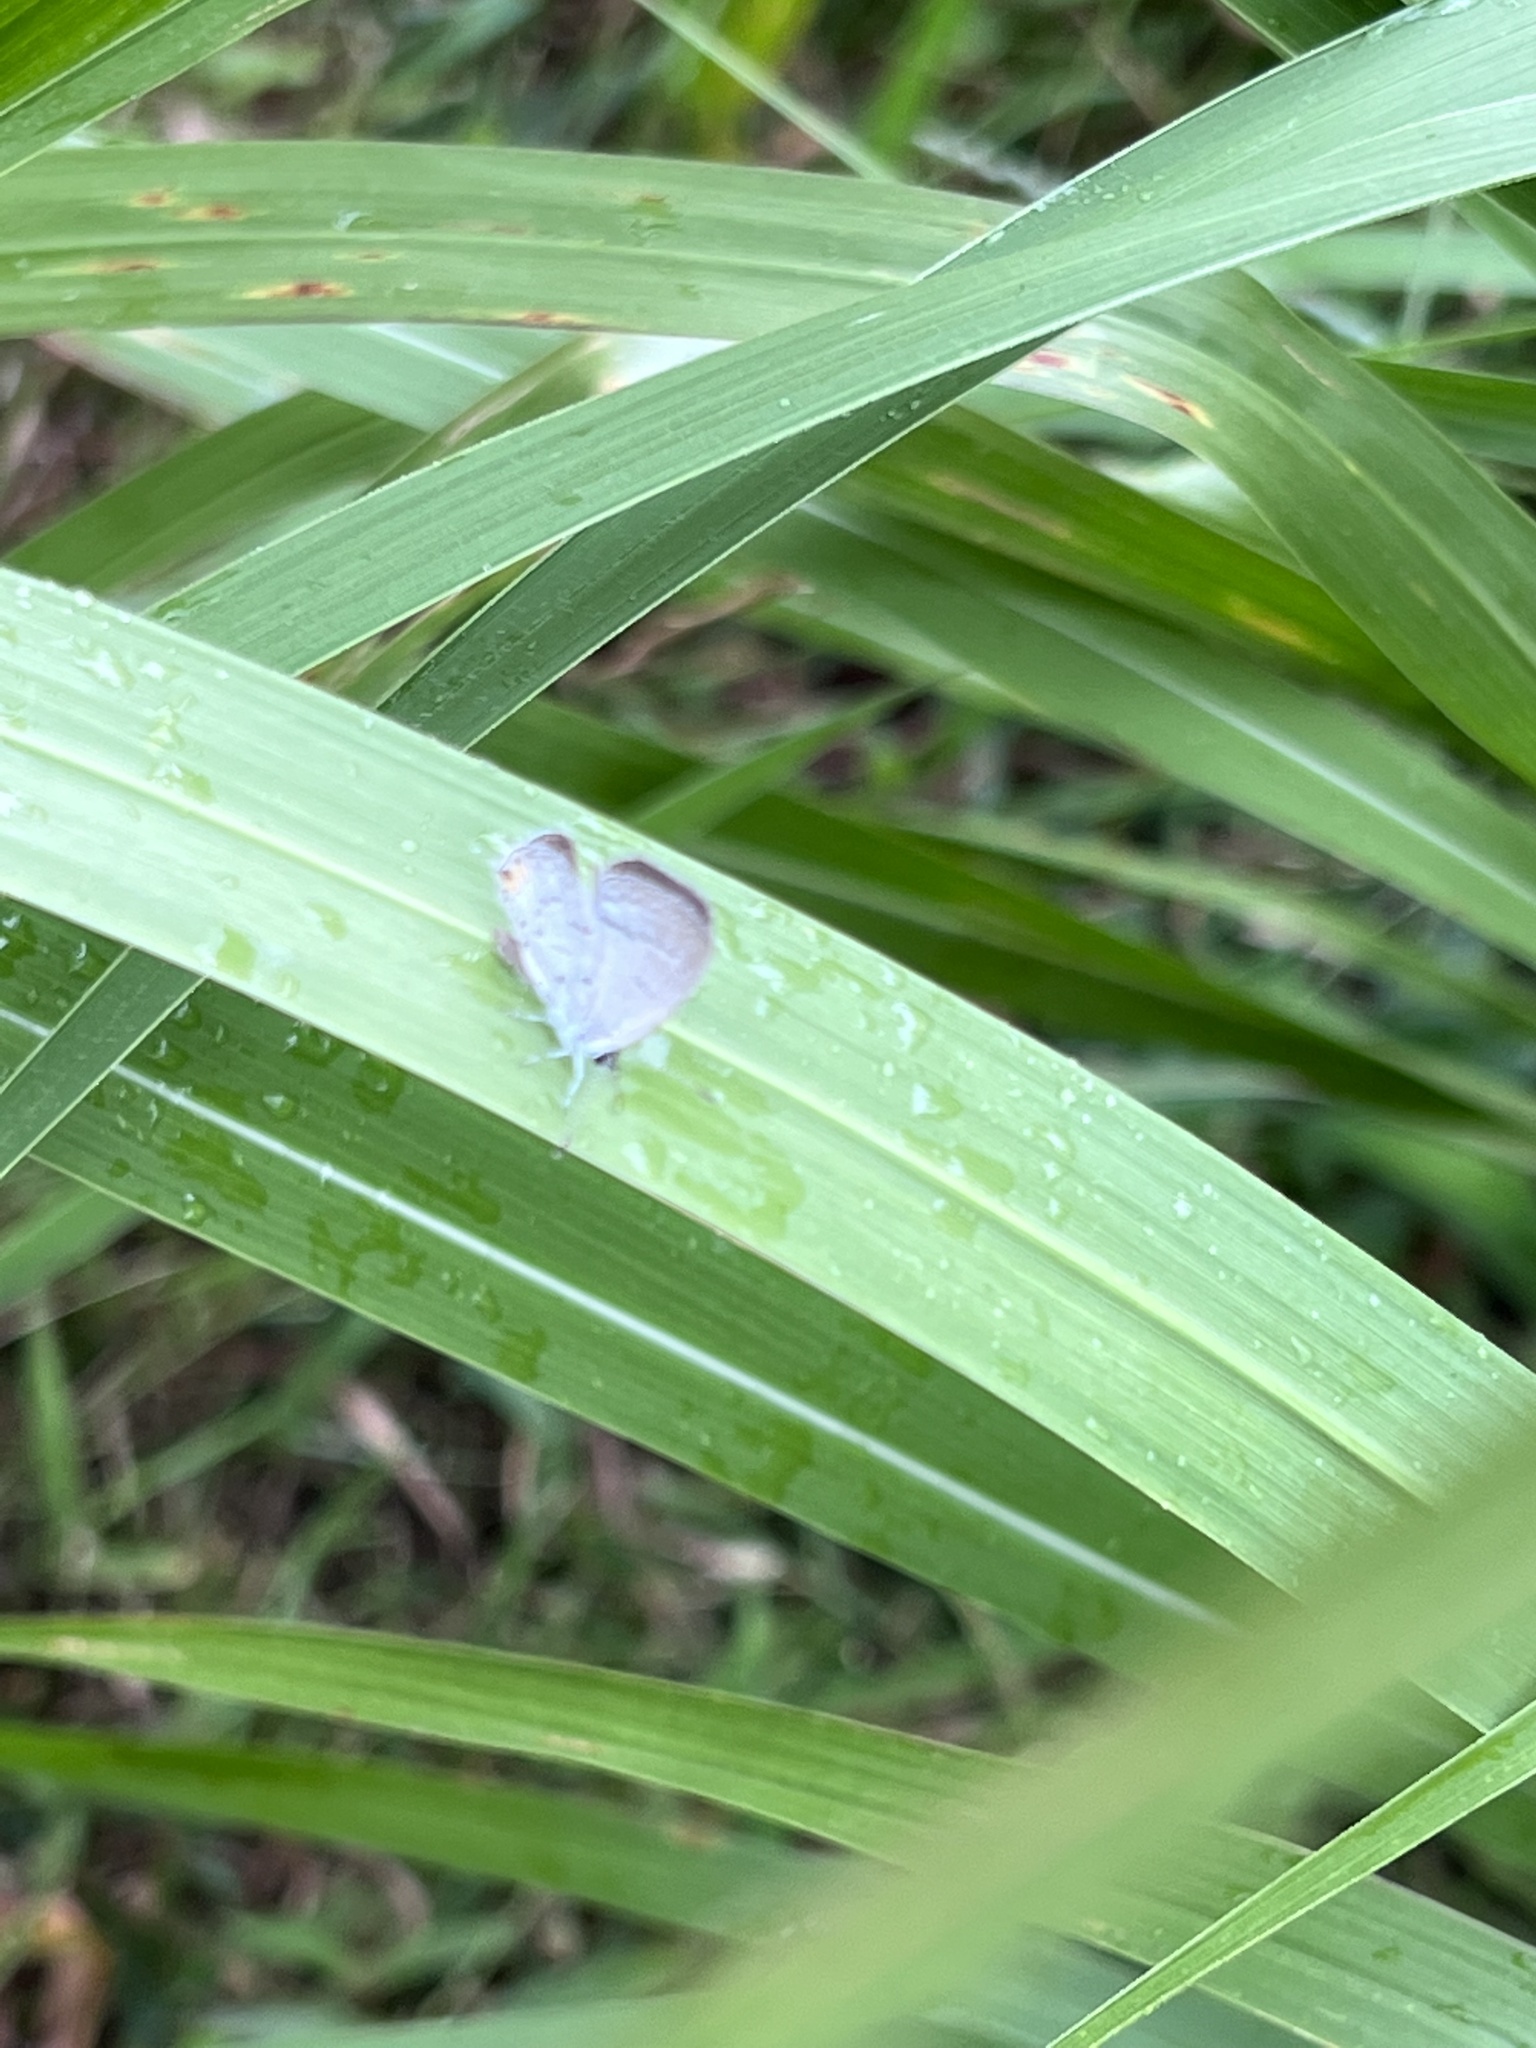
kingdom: Animalia
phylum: Arthropoda
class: Insecta
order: Lepidoptera
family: Lycaenidae
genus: Elkalyce
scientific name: Elkalyce comyntas
